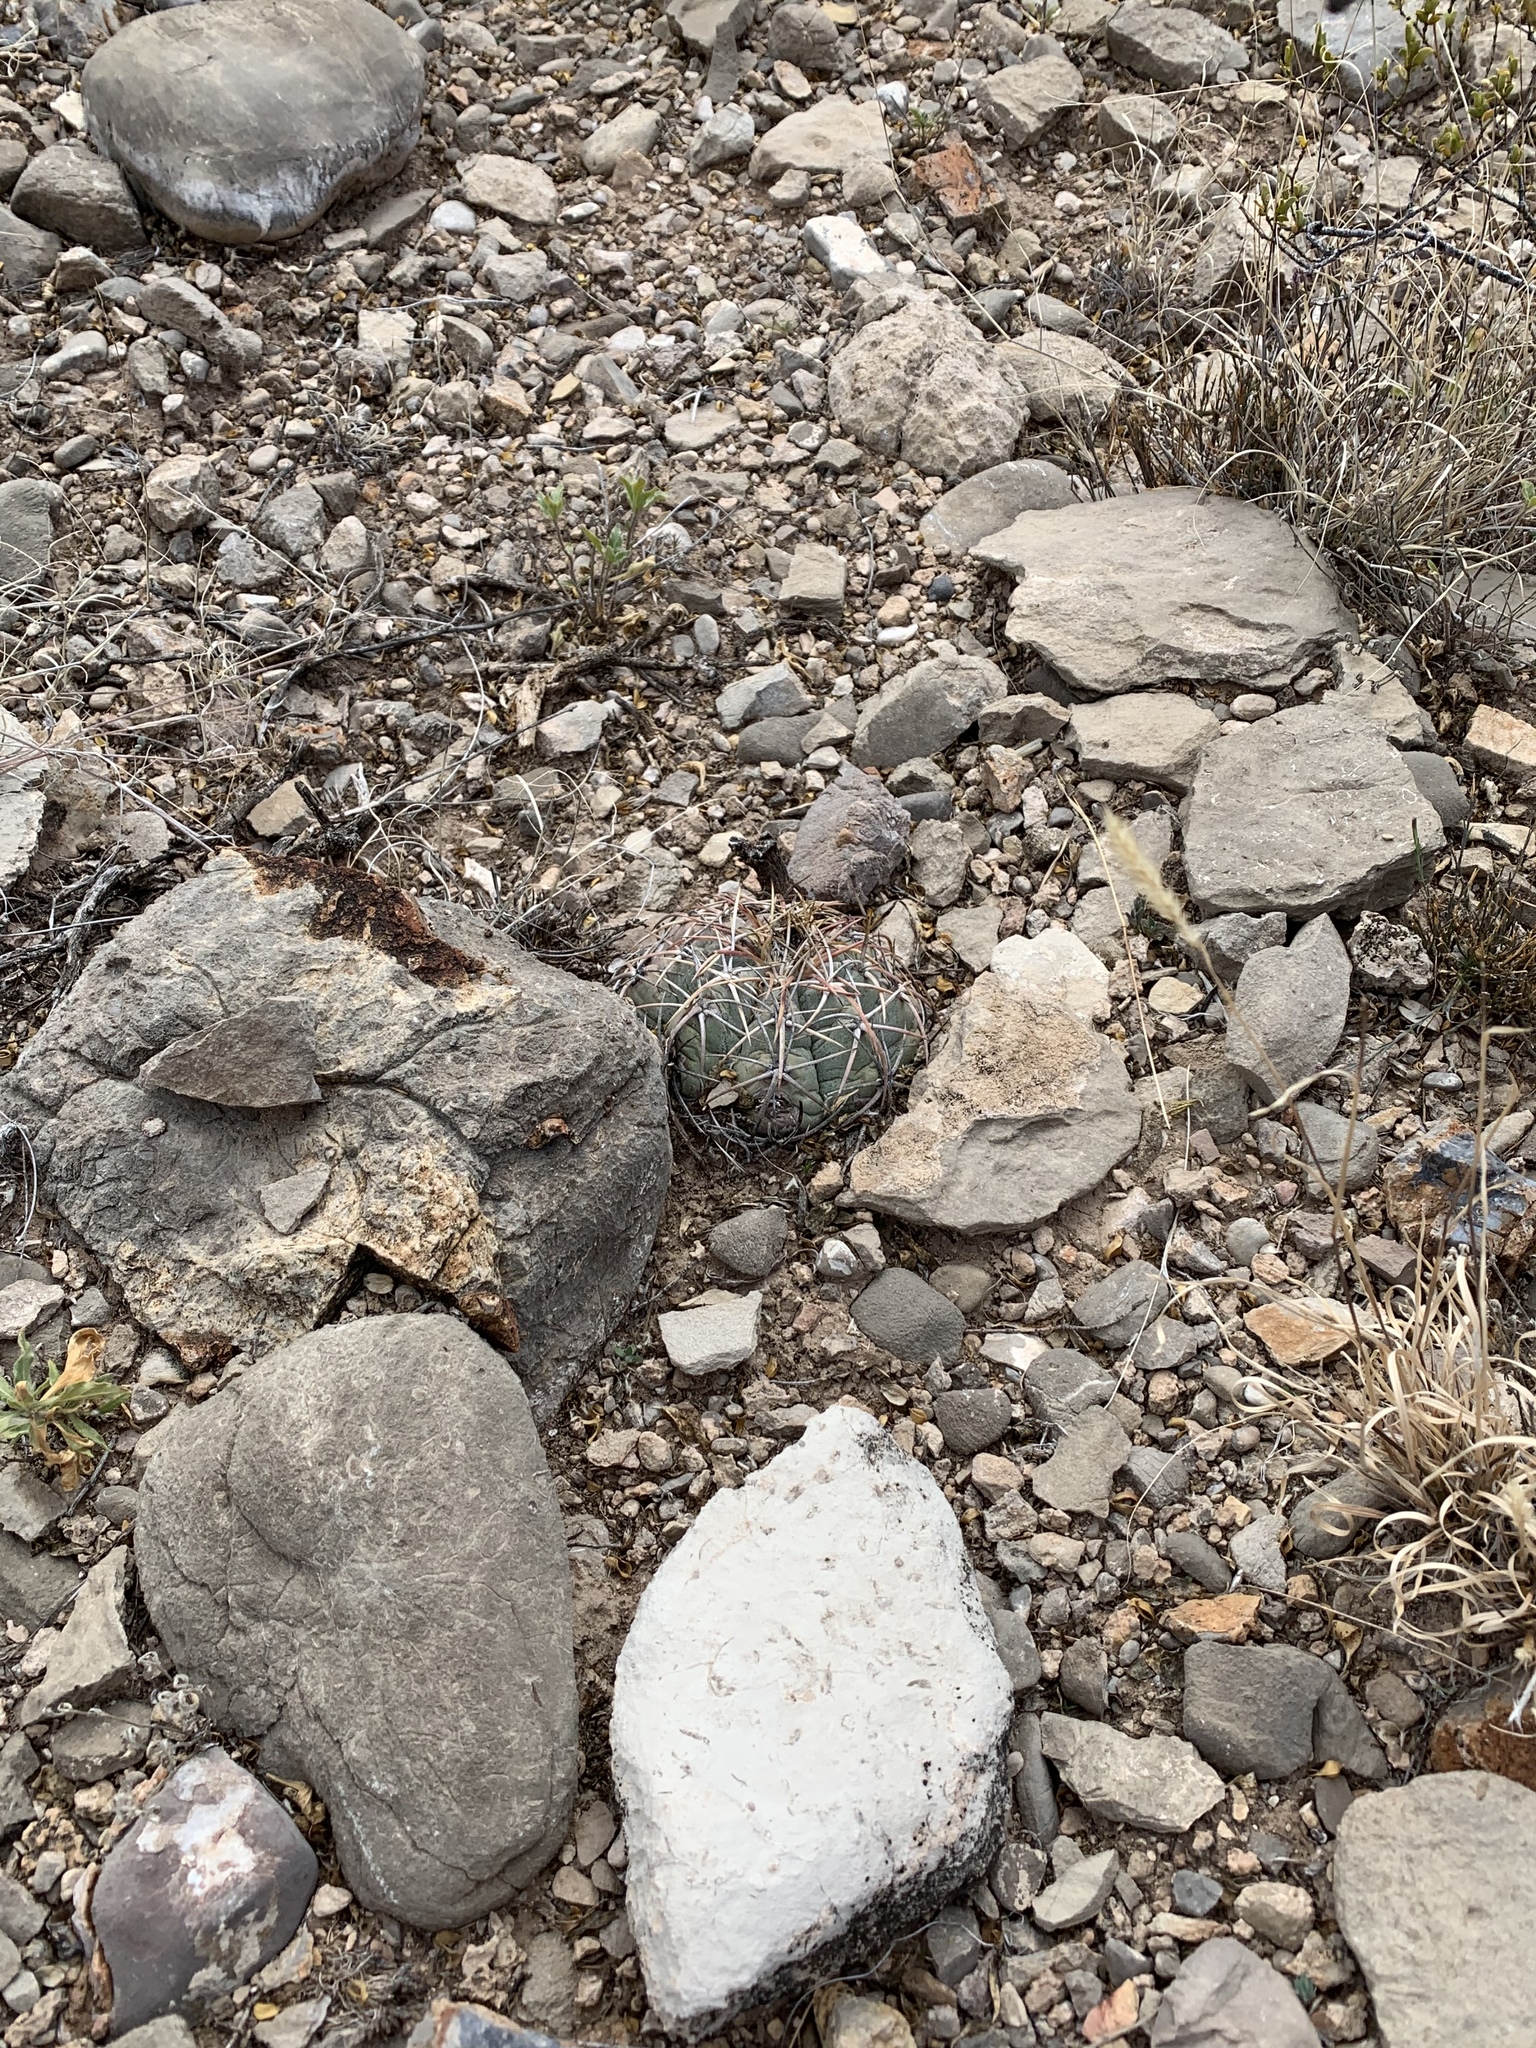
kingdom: Plantae
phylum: Tracheophyta
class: Magnoliopsida
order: Caryophyllales
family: Cactaceae
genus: Echinocactus
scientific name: Echinocactus horizonthalonius
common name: Devilshead
